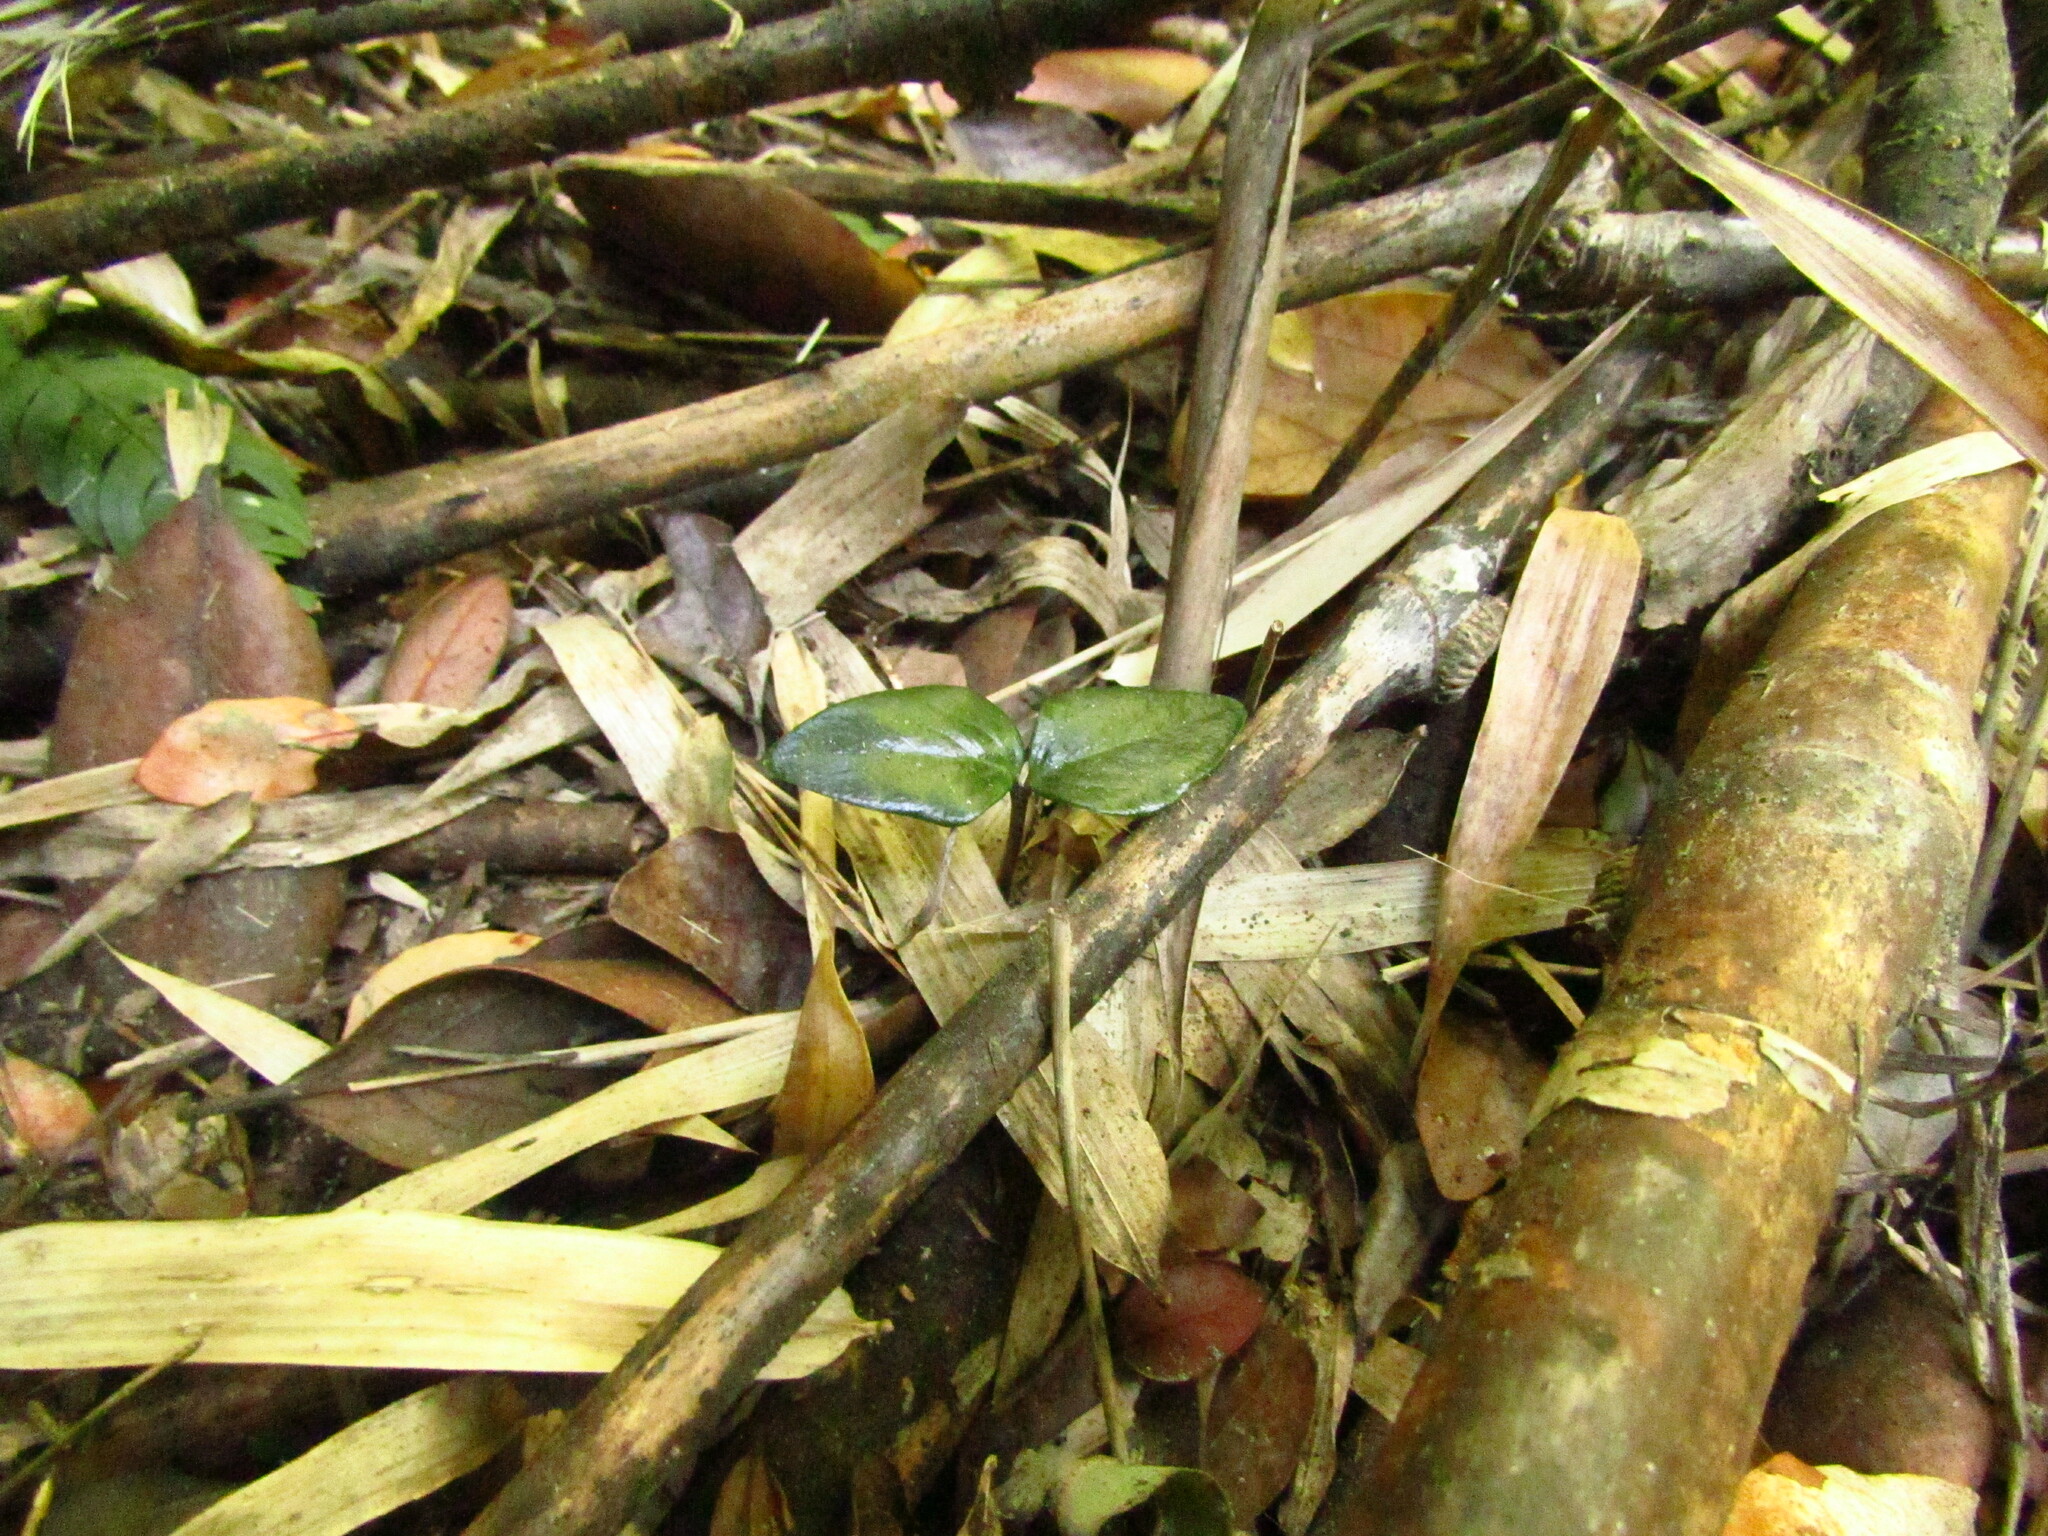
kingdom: Plantae
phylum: Tracheophyta
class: Magnoliopsida
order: Cardiopteridales
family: Cardiopteridaceae
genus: Citronella
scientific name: Citronella mucronata
